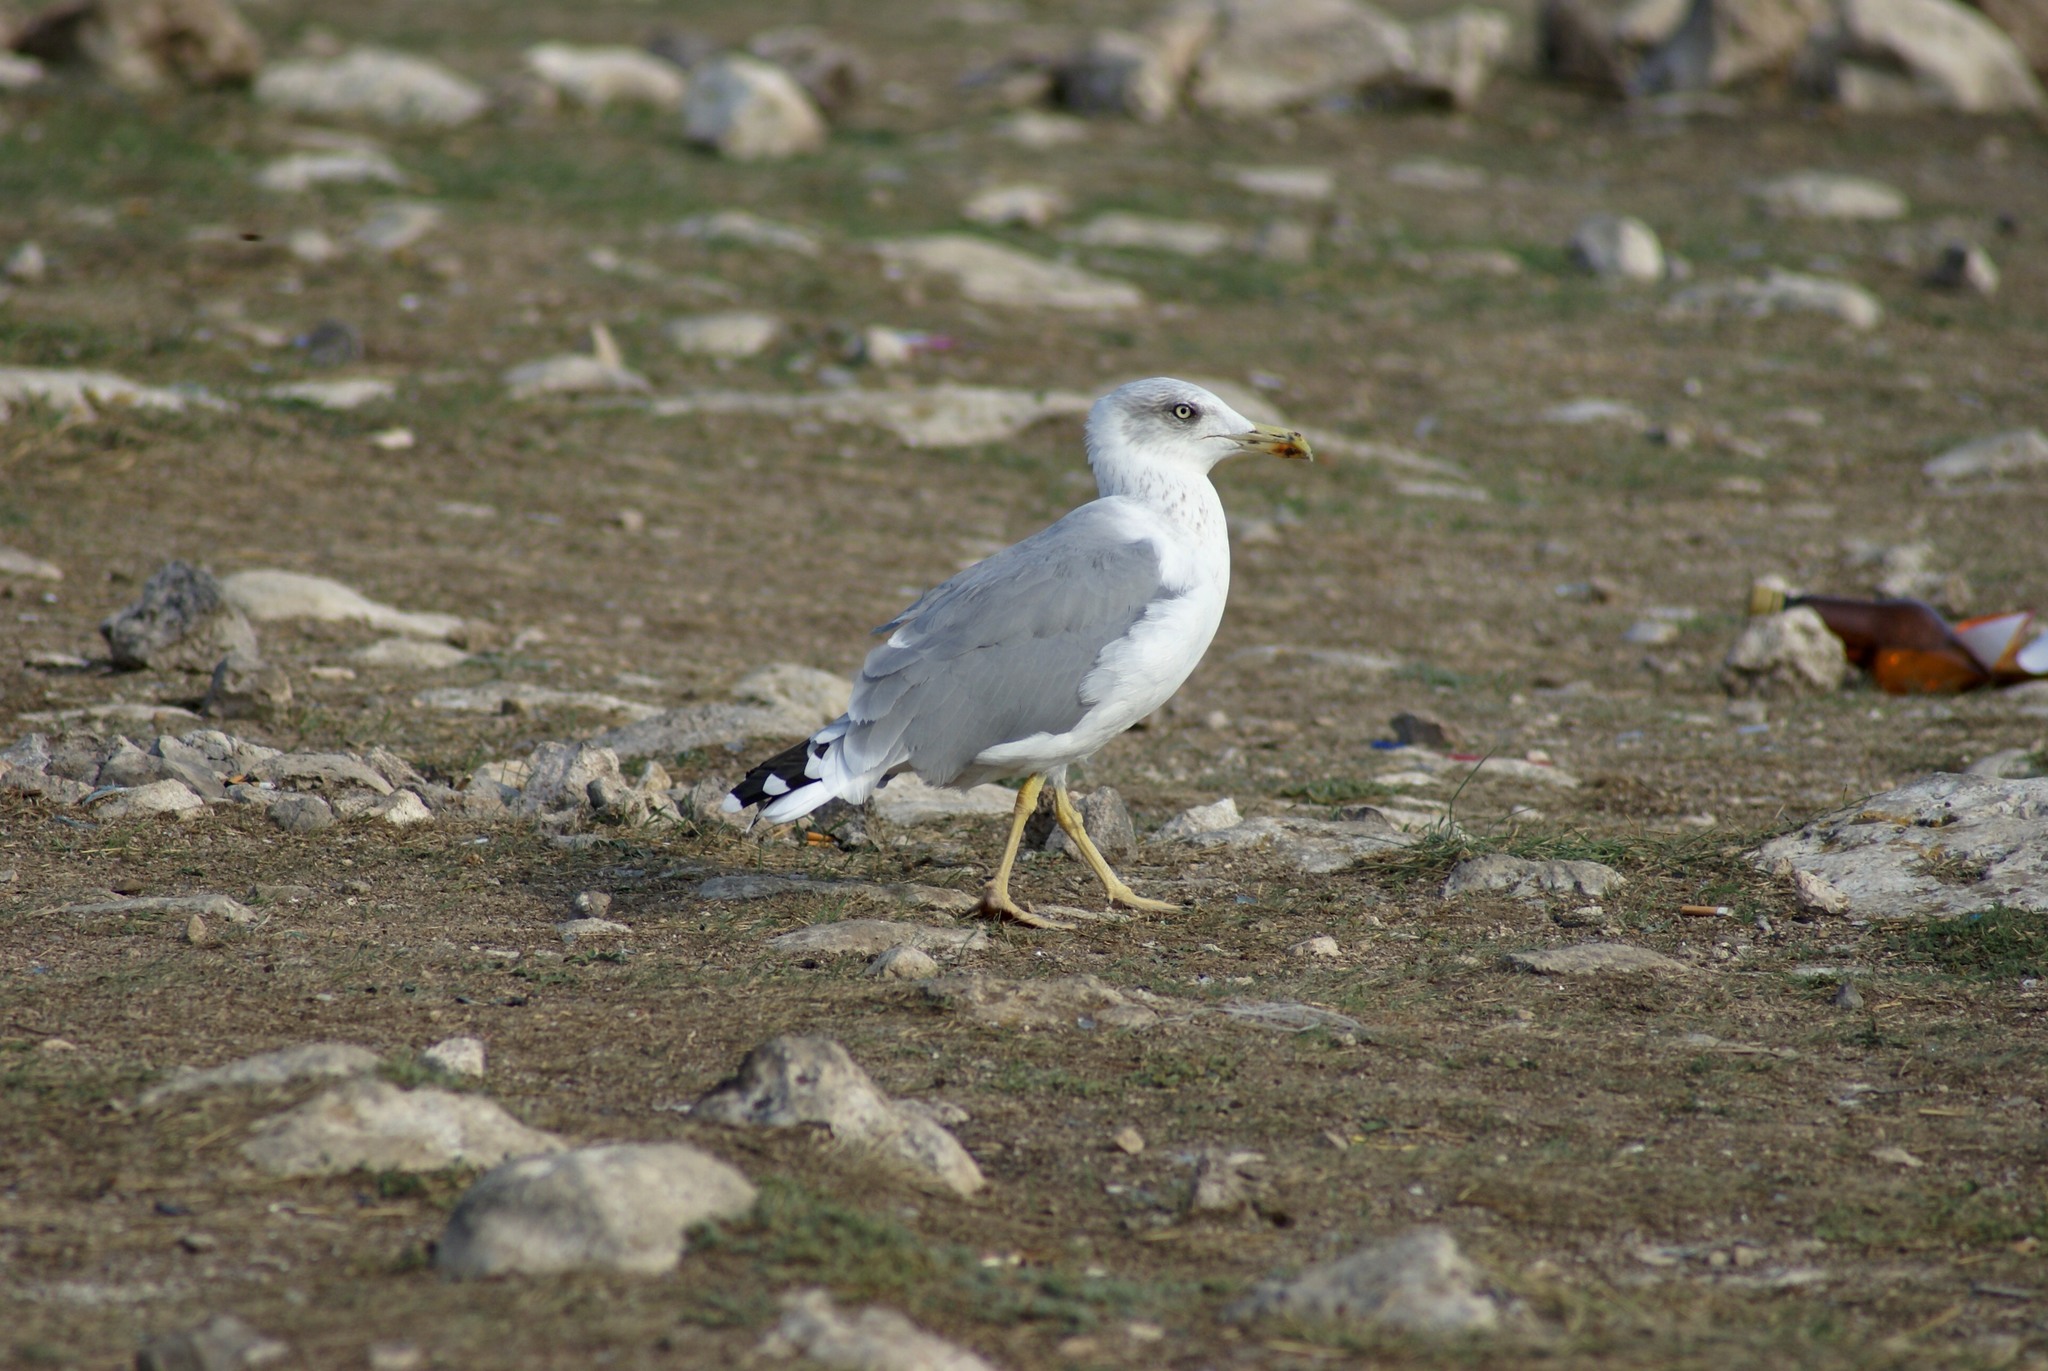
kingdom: Animalia
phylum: Chordata
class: Aves
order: Charadriiformes
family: Laridae
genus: Larus
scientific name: Larus michahellis
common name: Yellow-legged gull
